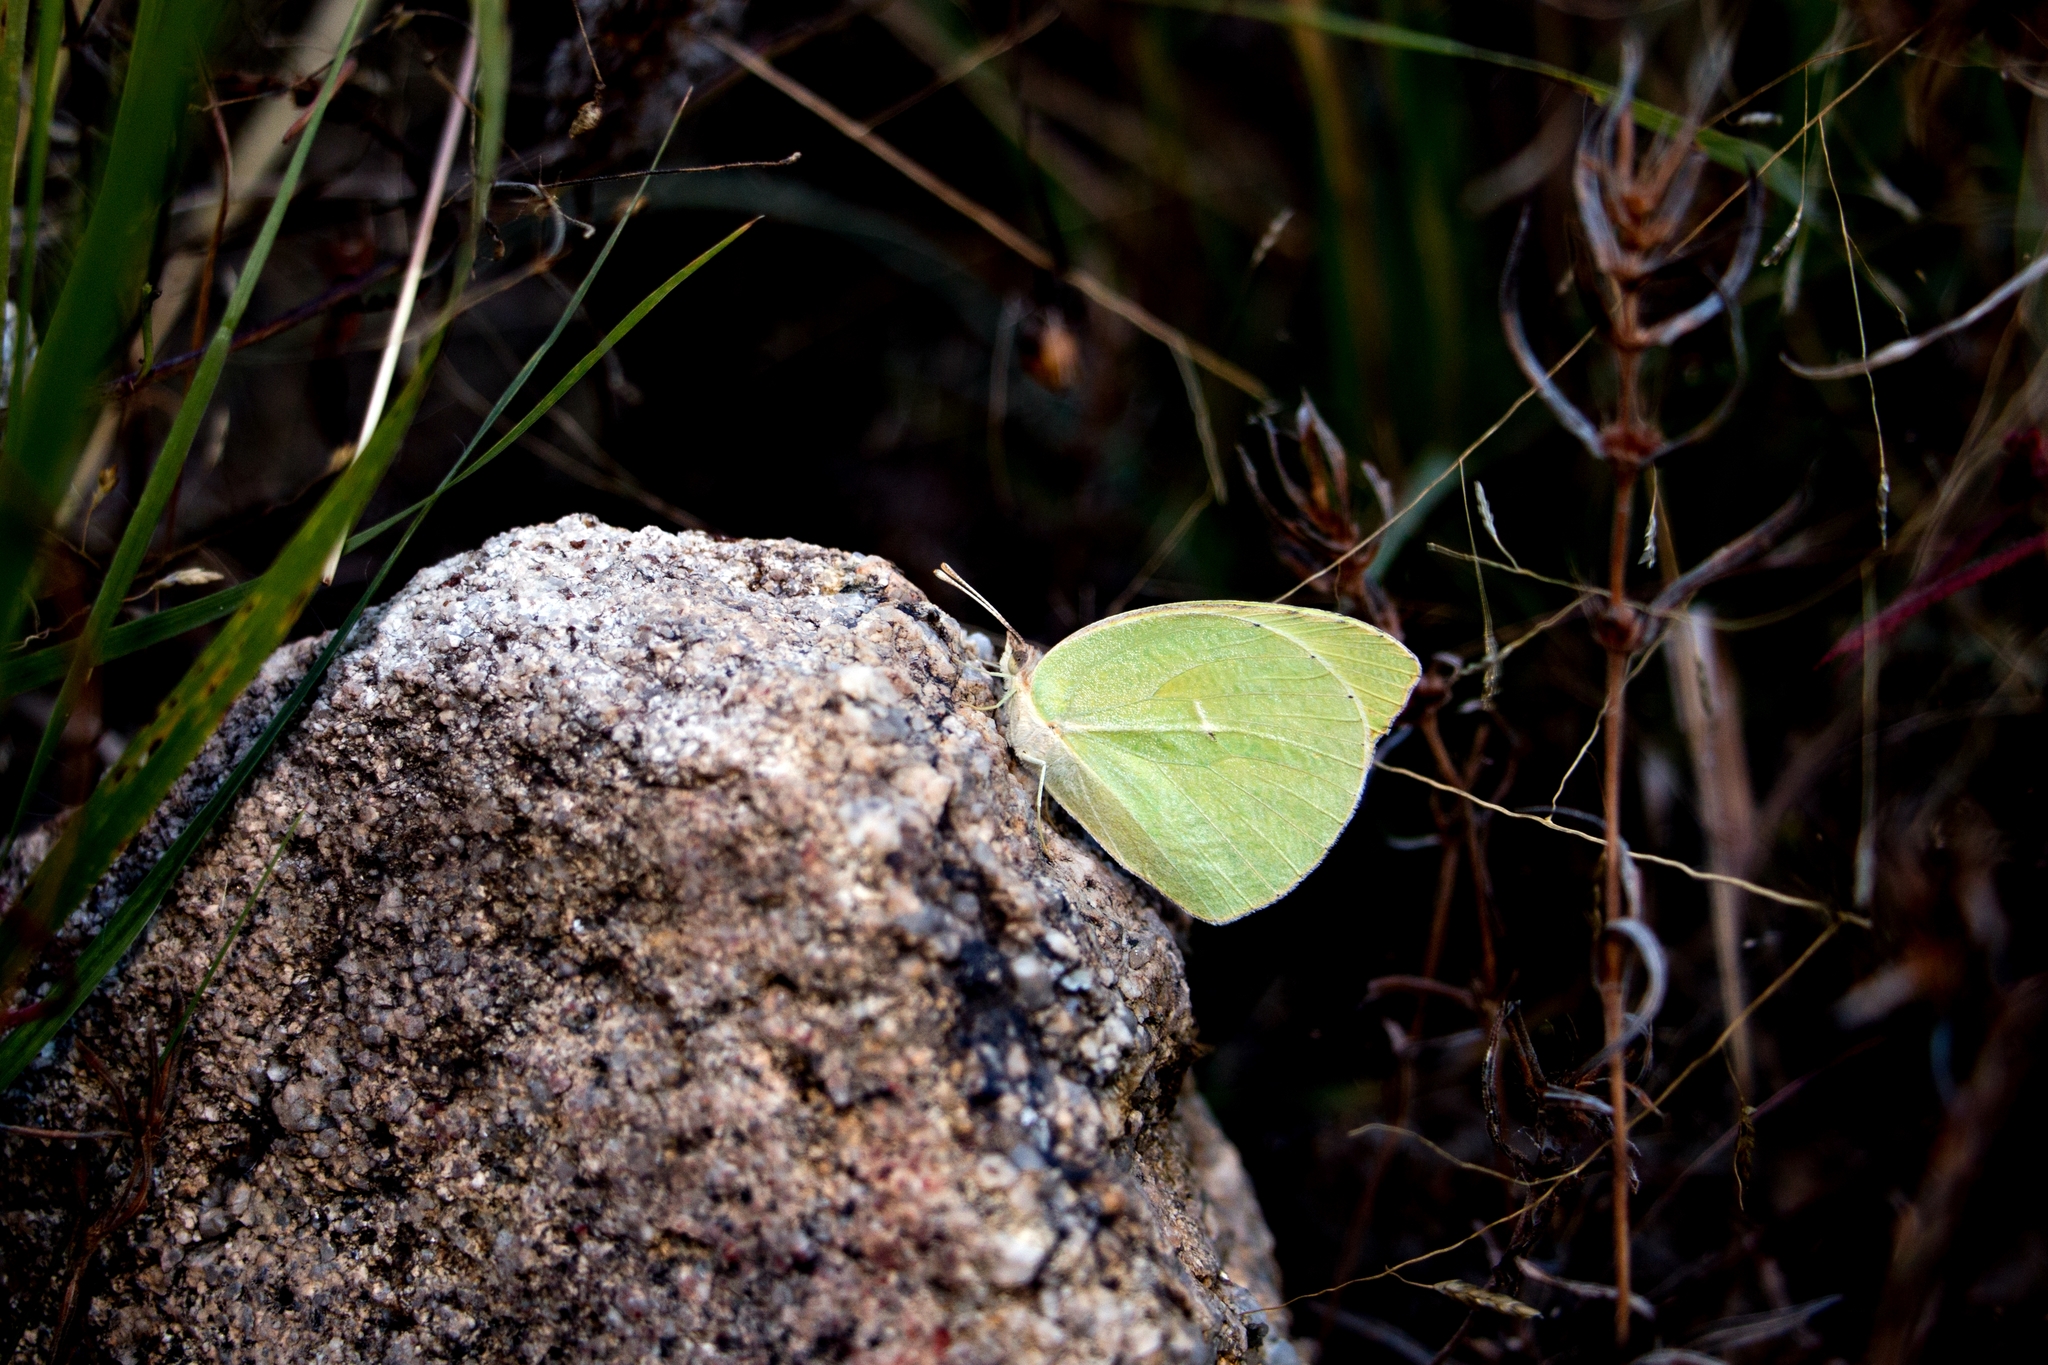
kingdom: Animalia
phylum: Arthropoda
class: Insecta
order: Lepidoptera
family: Pieridae
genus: Kricogonia
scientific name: Kricogonia lyside
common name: Guayacan sulphur,
